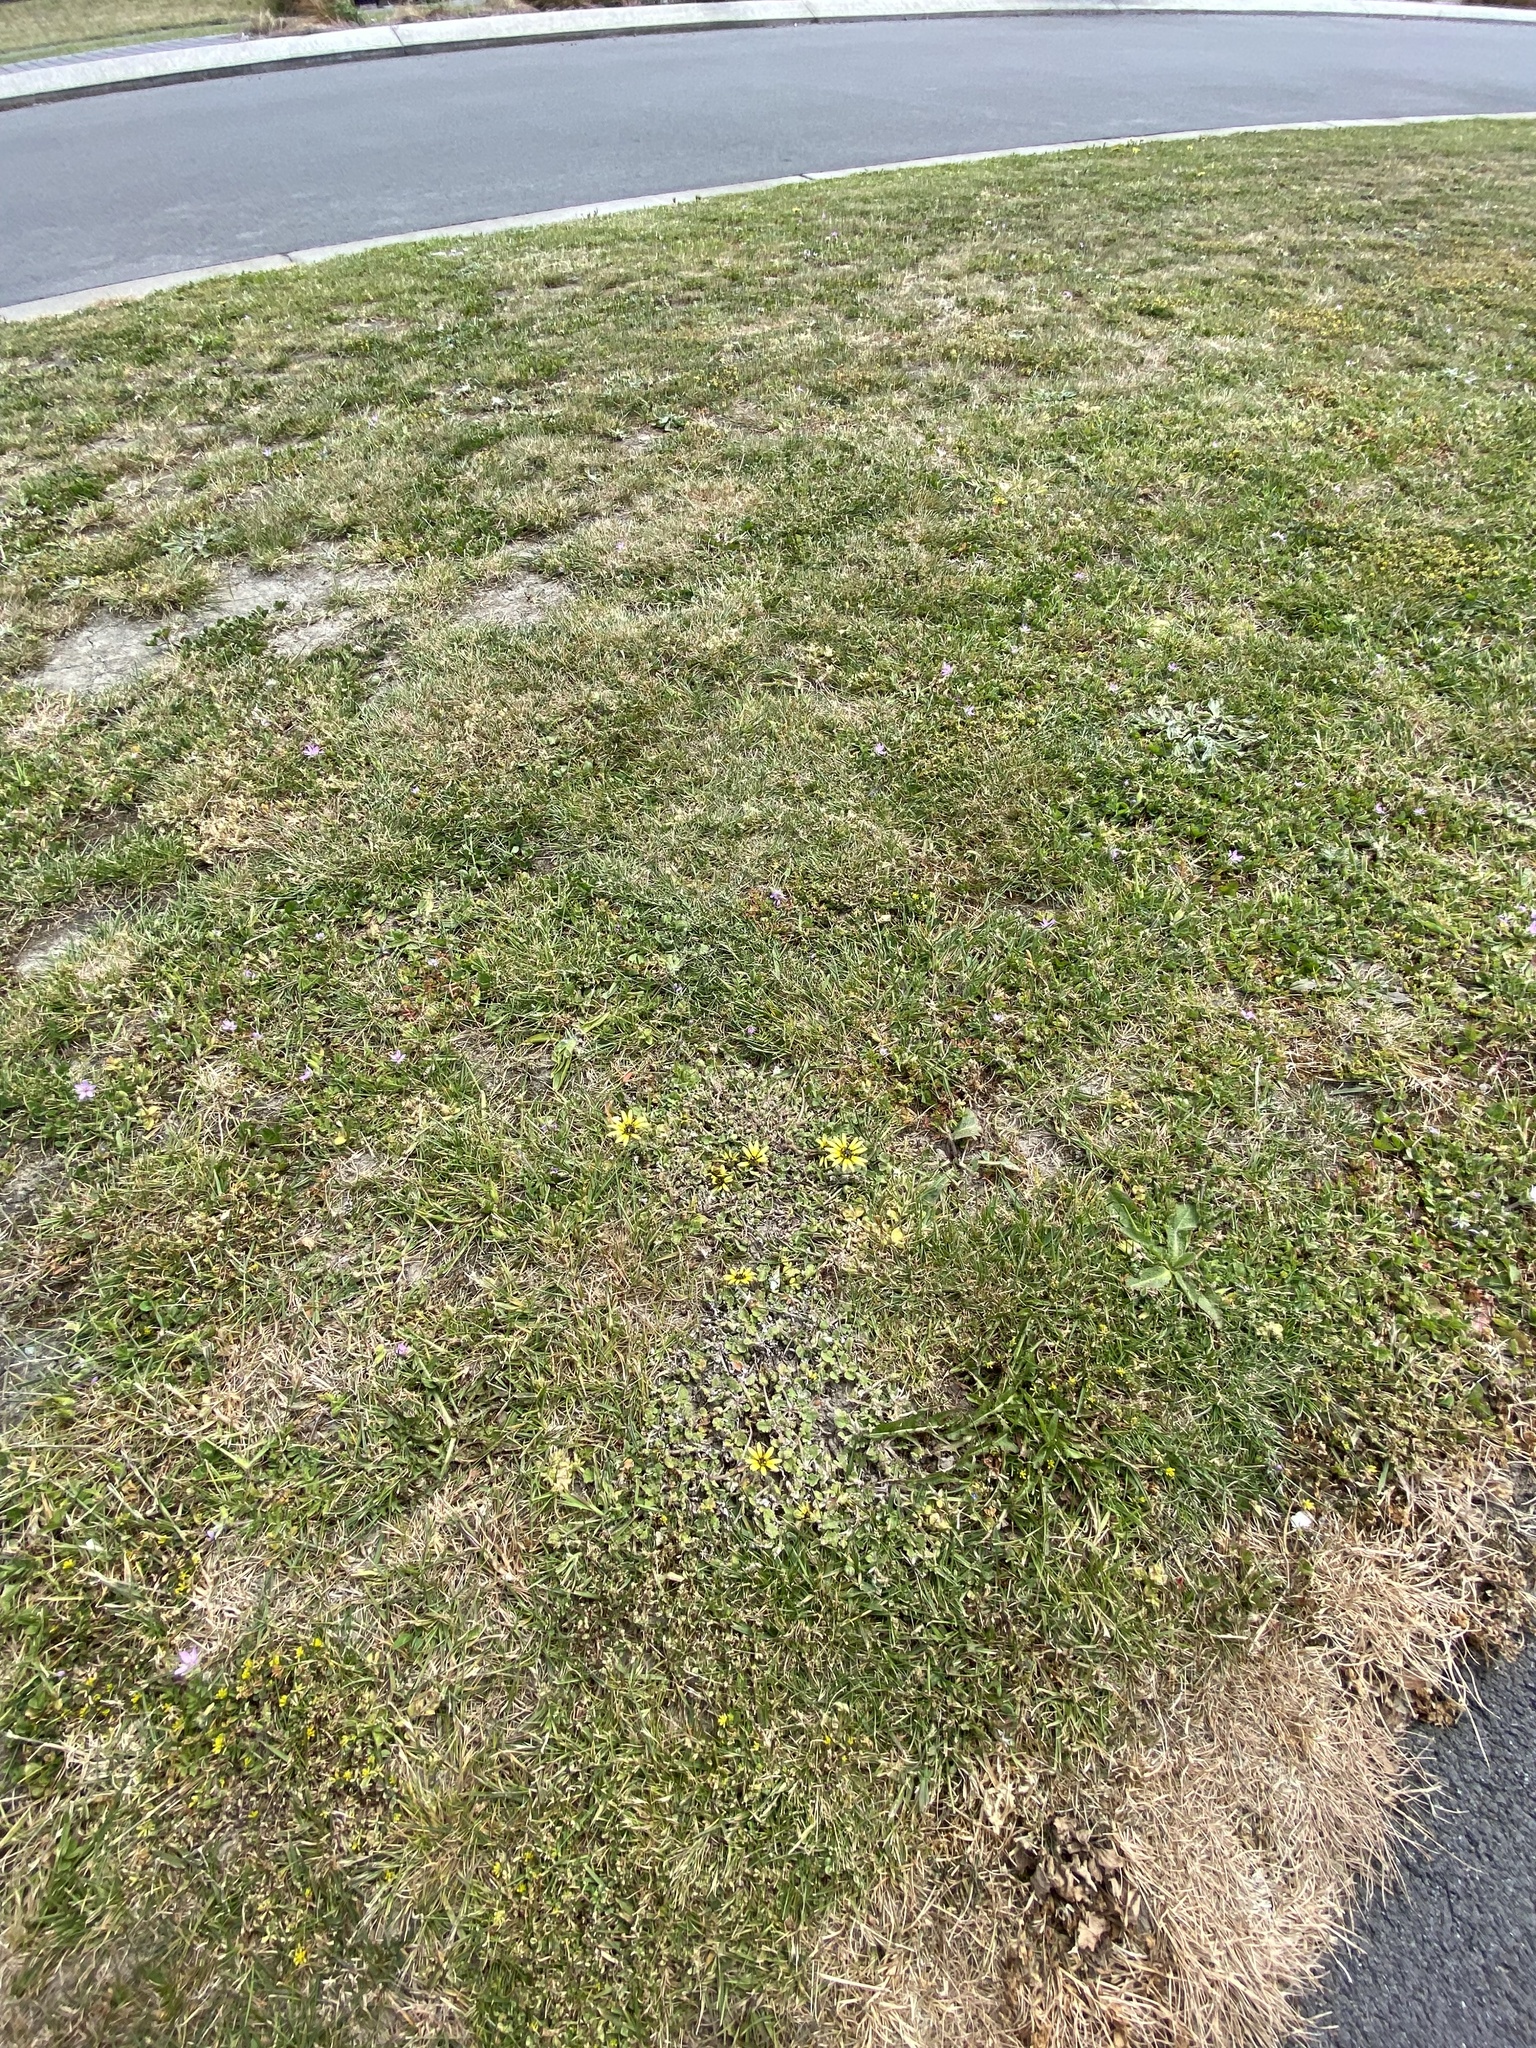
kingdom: Plantae
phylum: Tracheophyta
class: Magnoliopsida
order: Asterales
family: Asteraceae
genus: Arctotheca
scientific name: Arctotheca calendula
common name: Capeweed
